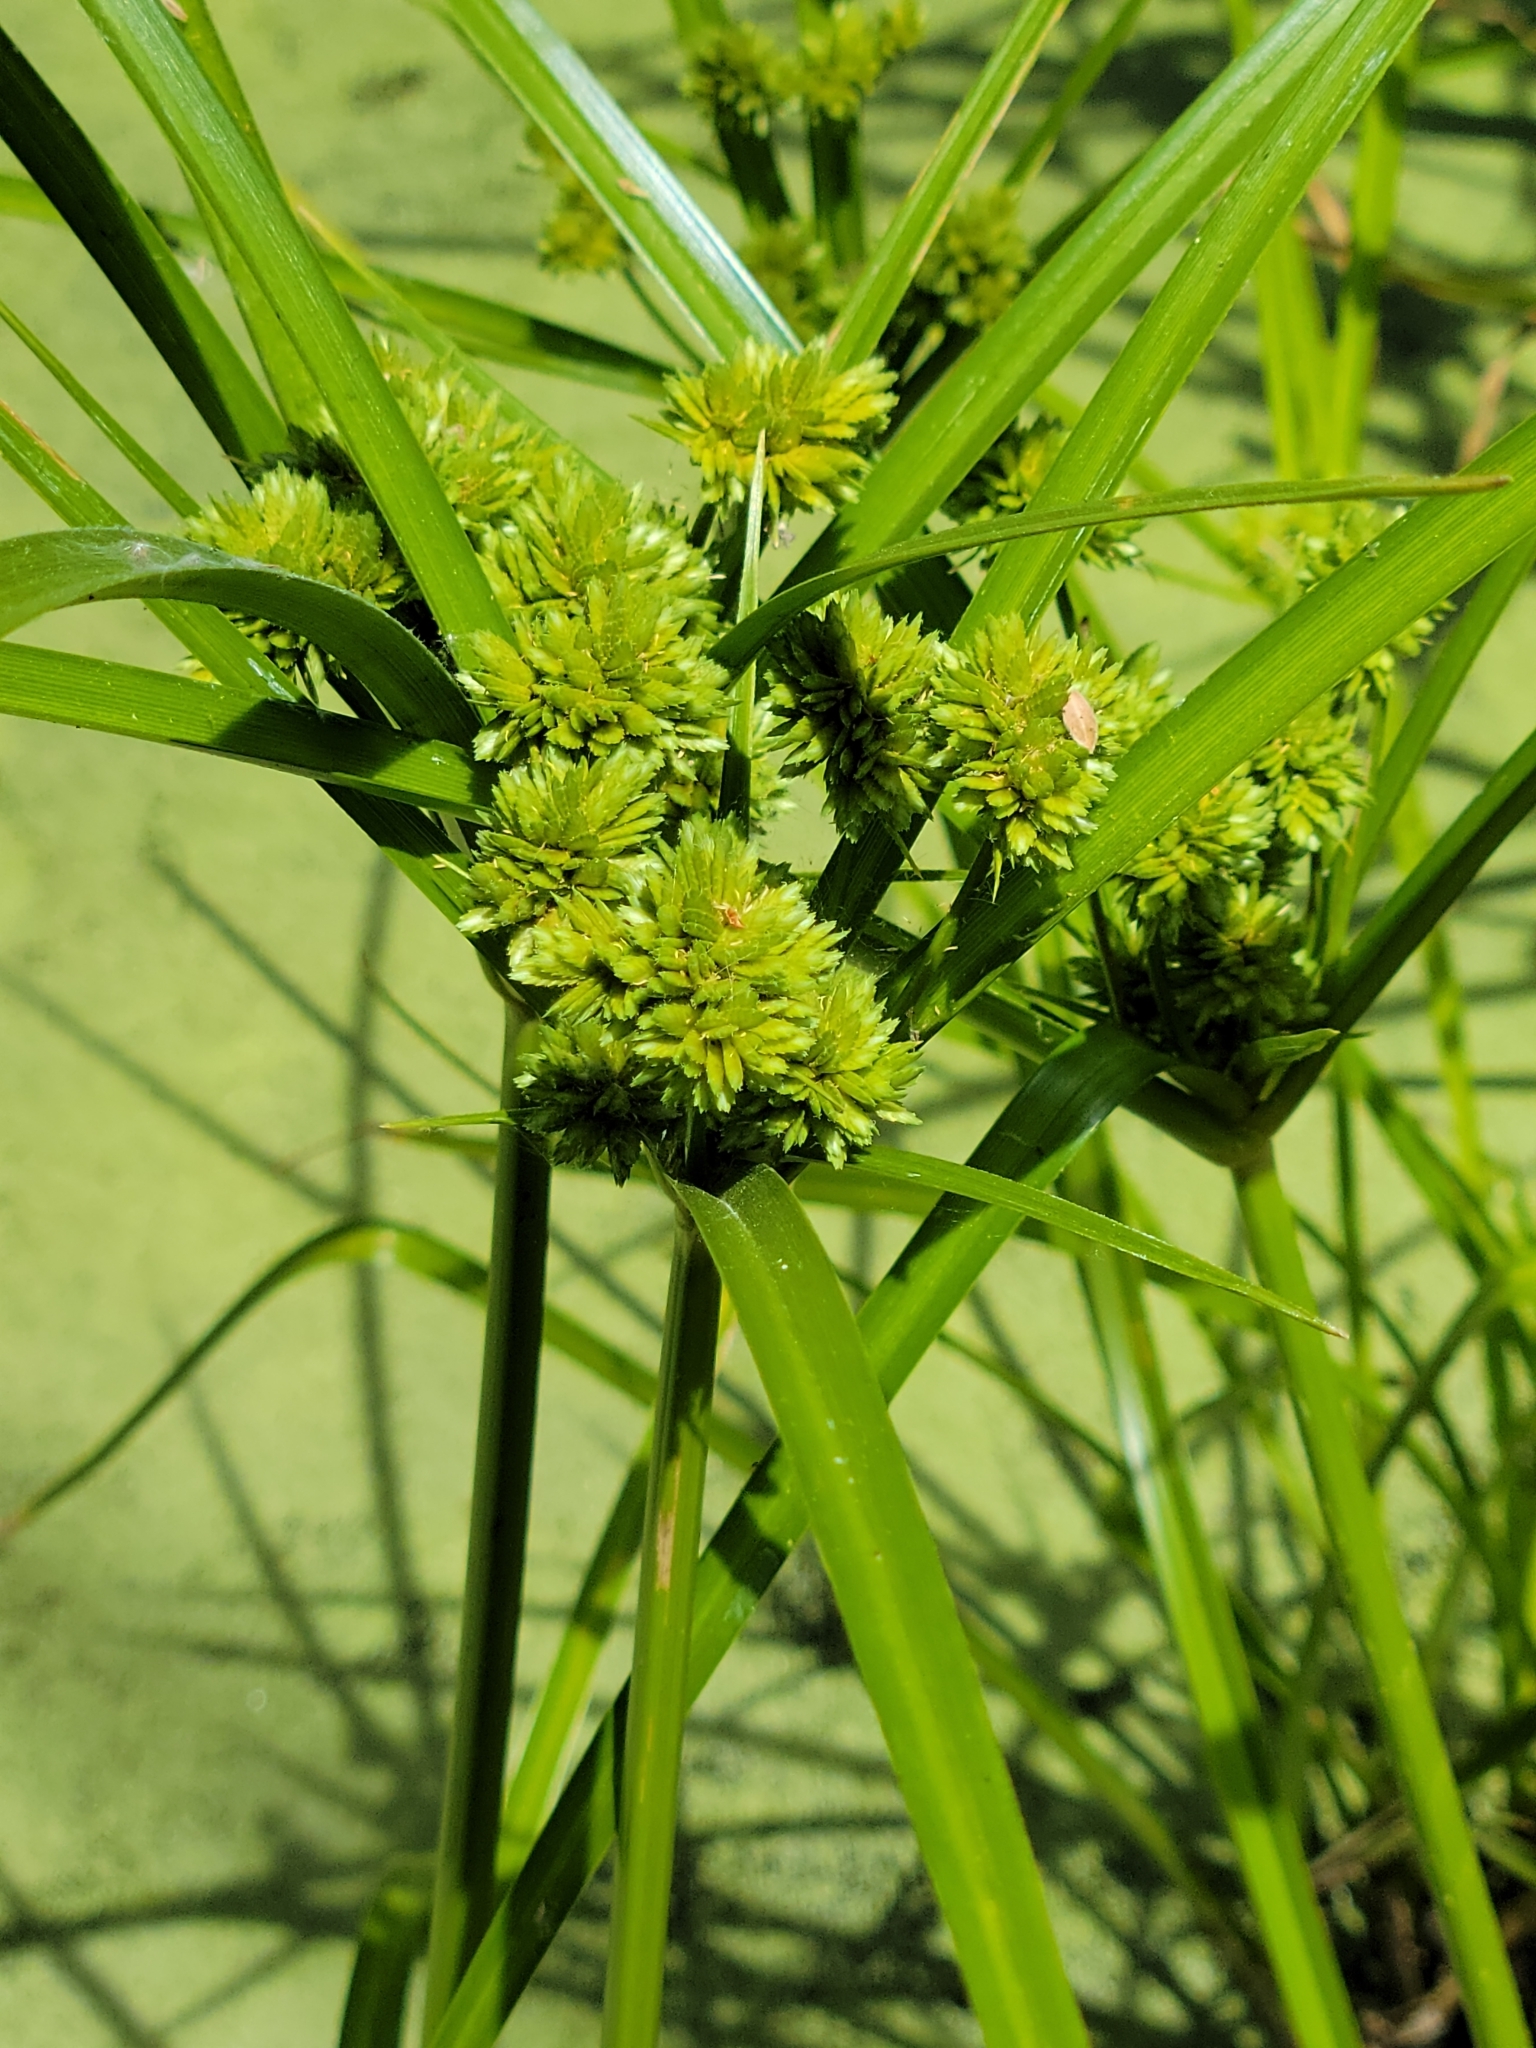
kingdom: Plantae
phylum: Tracheophyta
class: Liliopsida
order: Poales
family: Cyperaceae
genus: Cyperus
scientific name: Cyperus eragrostis
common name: Tall flatsedge
